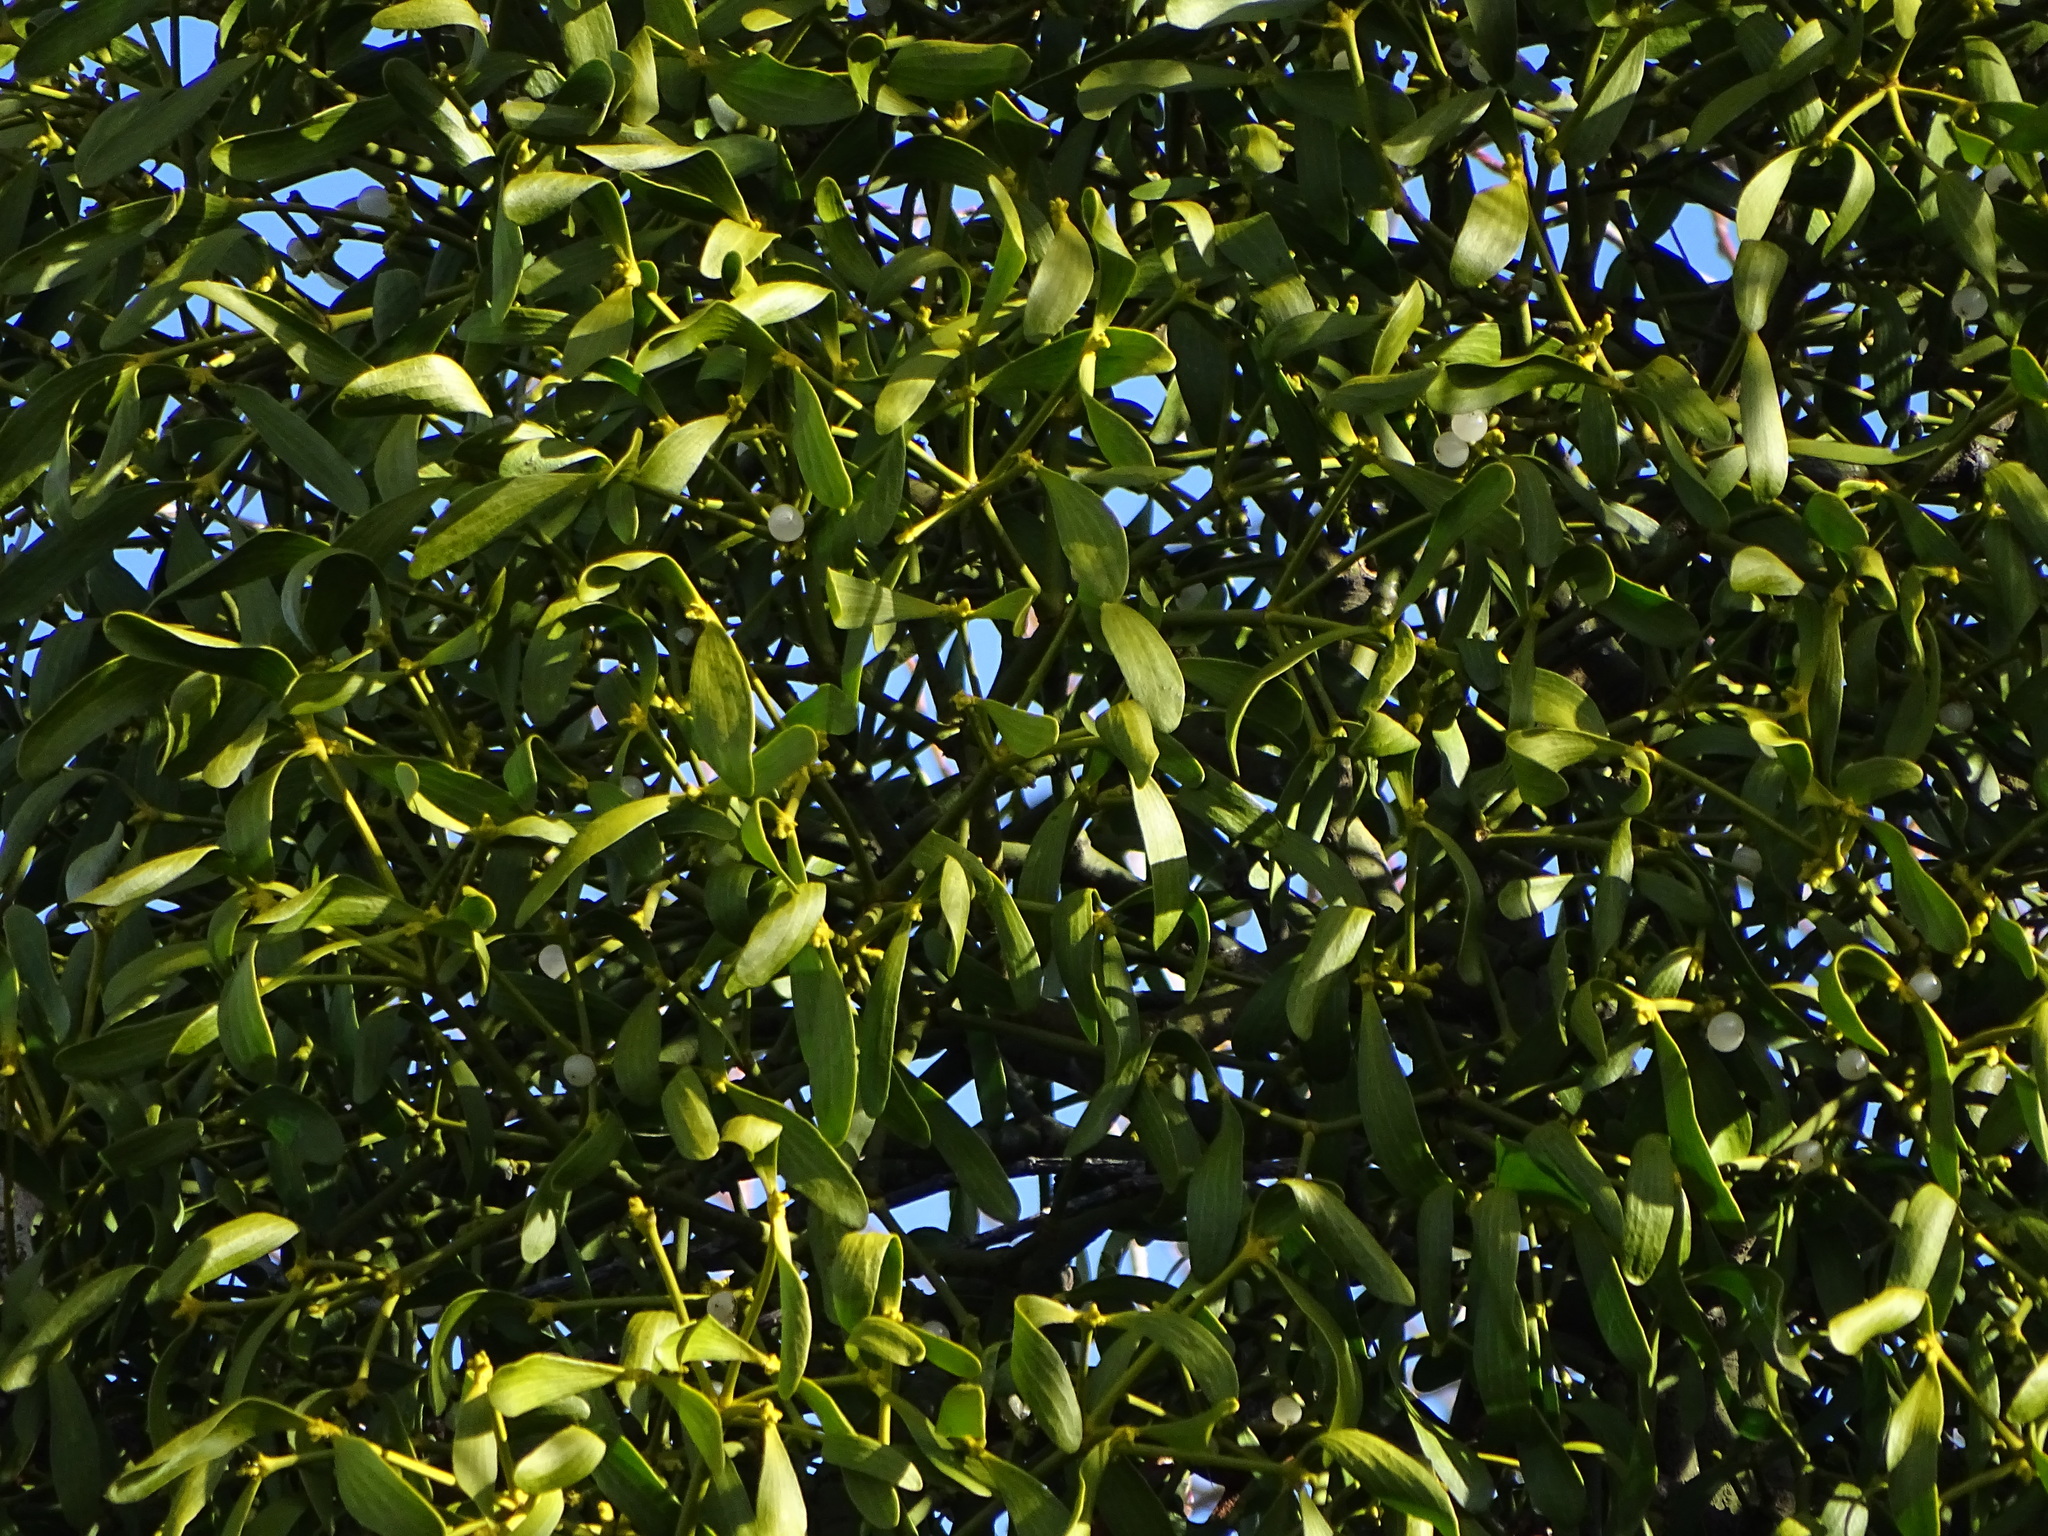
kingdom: Plantae
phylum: Tracheophyta
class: Magnoliopsida
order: Santalales
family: Viscaceae
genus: Viscum
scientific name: Viscum album
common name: Mistletoe
